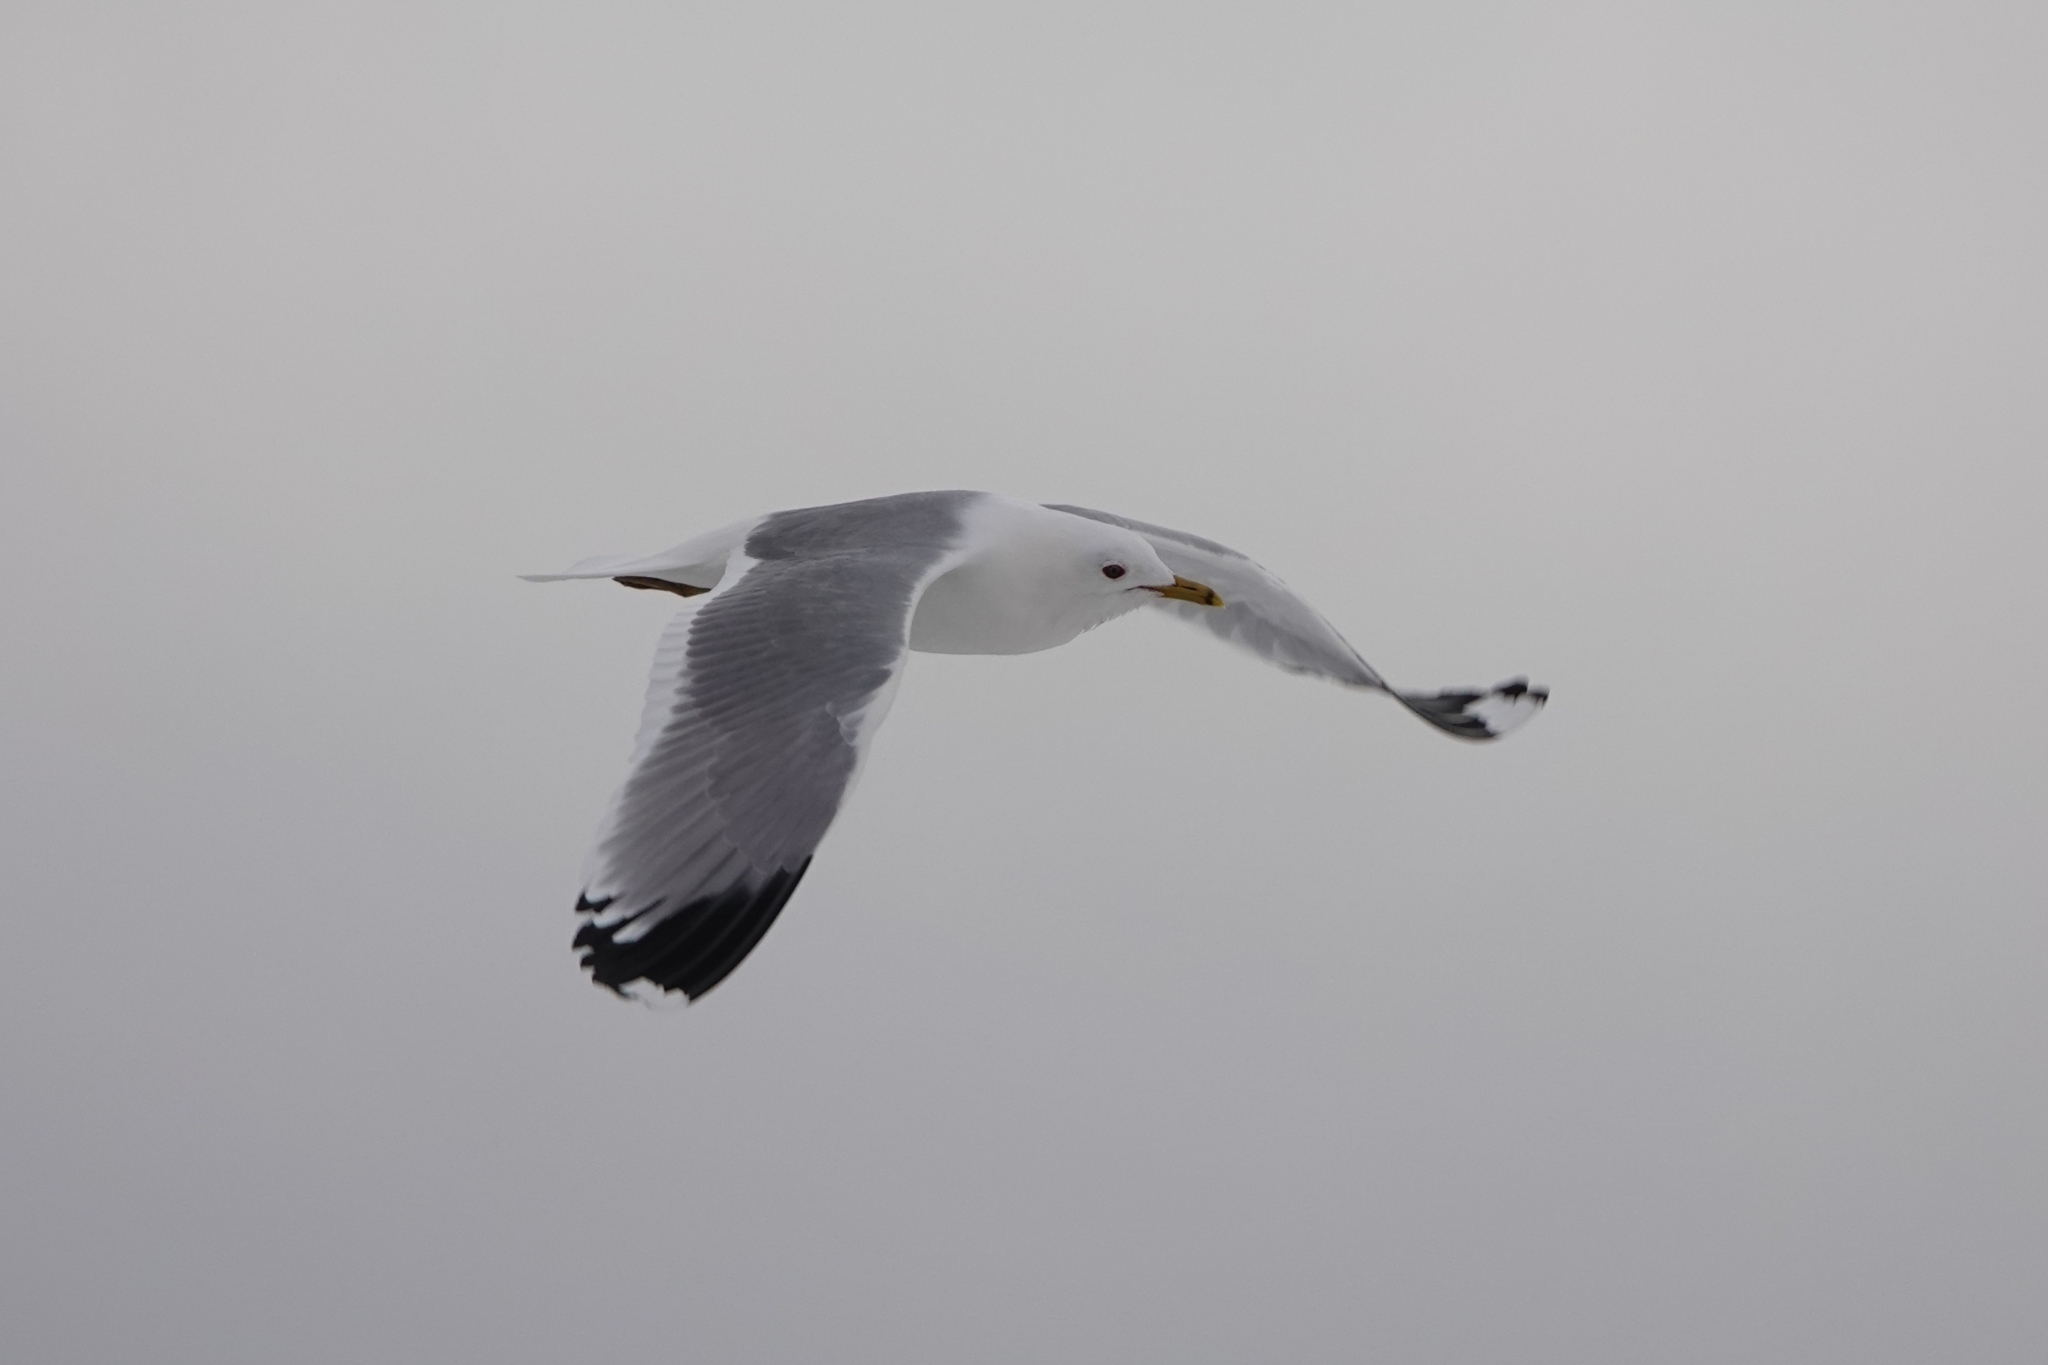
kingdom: Animalia
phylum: Chordata
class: Aves
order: Charadriiformes
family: Laridae
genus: Larus
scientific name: Larus canus
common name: Mew gull
